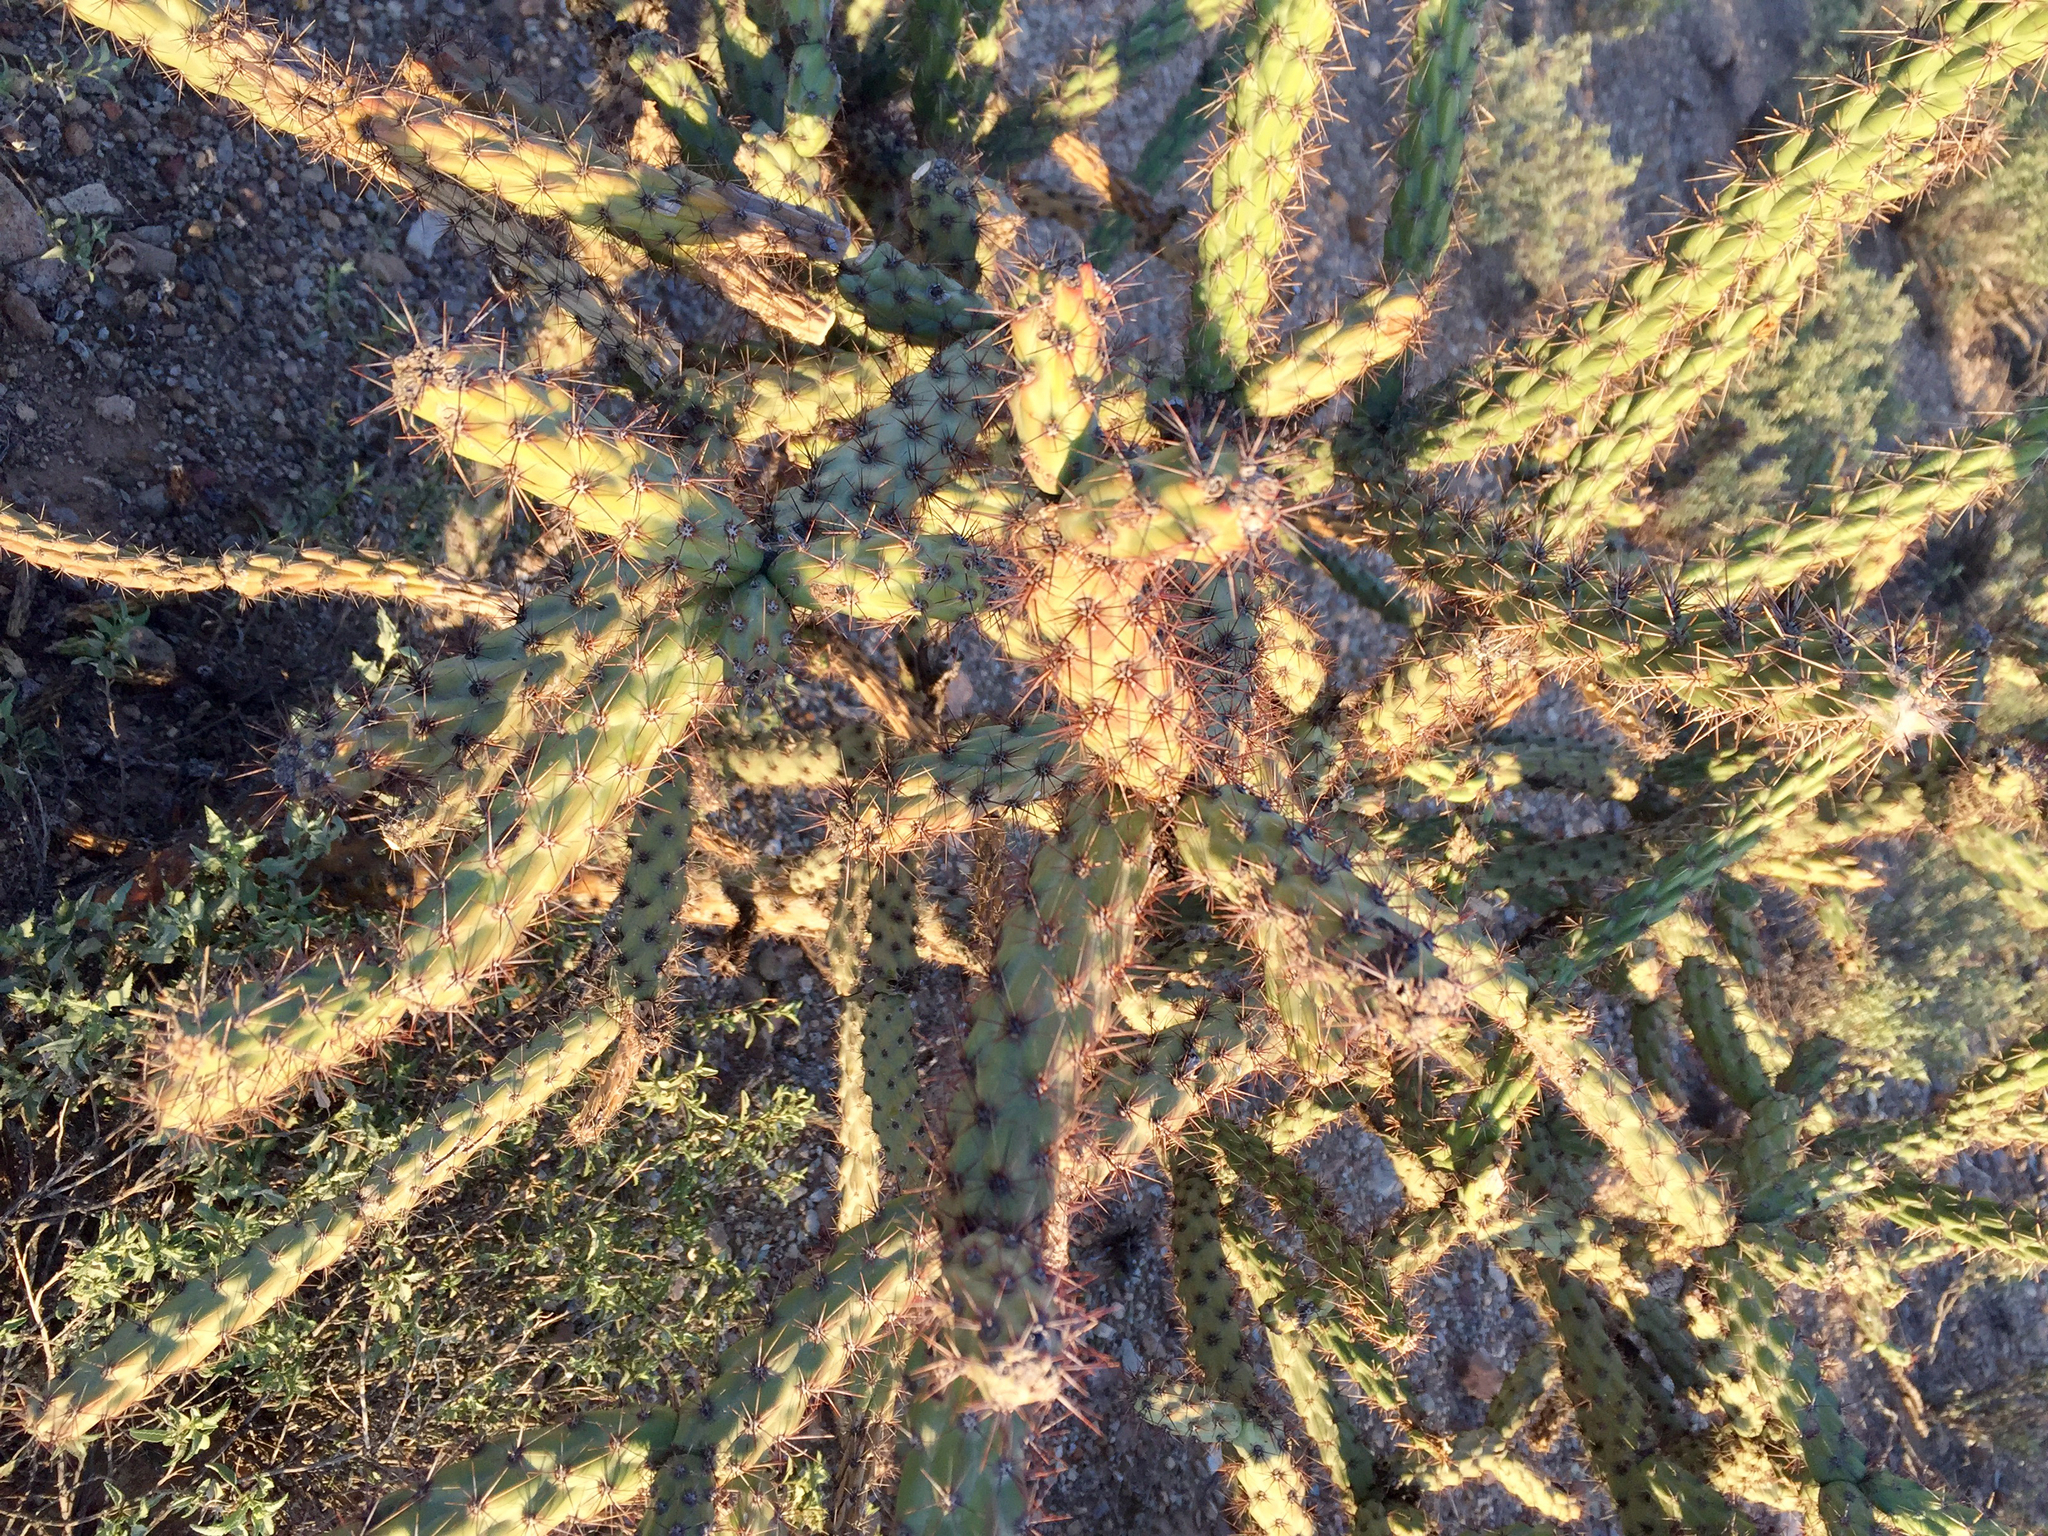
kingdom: Plantae
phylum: Tracheophyta
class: Magnoliopsida
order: Caryophyllales
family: Cactaceae
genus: Cylindropuntia
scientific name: Cylindropuntia acanthocarpa
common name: Buckhorn cholla
